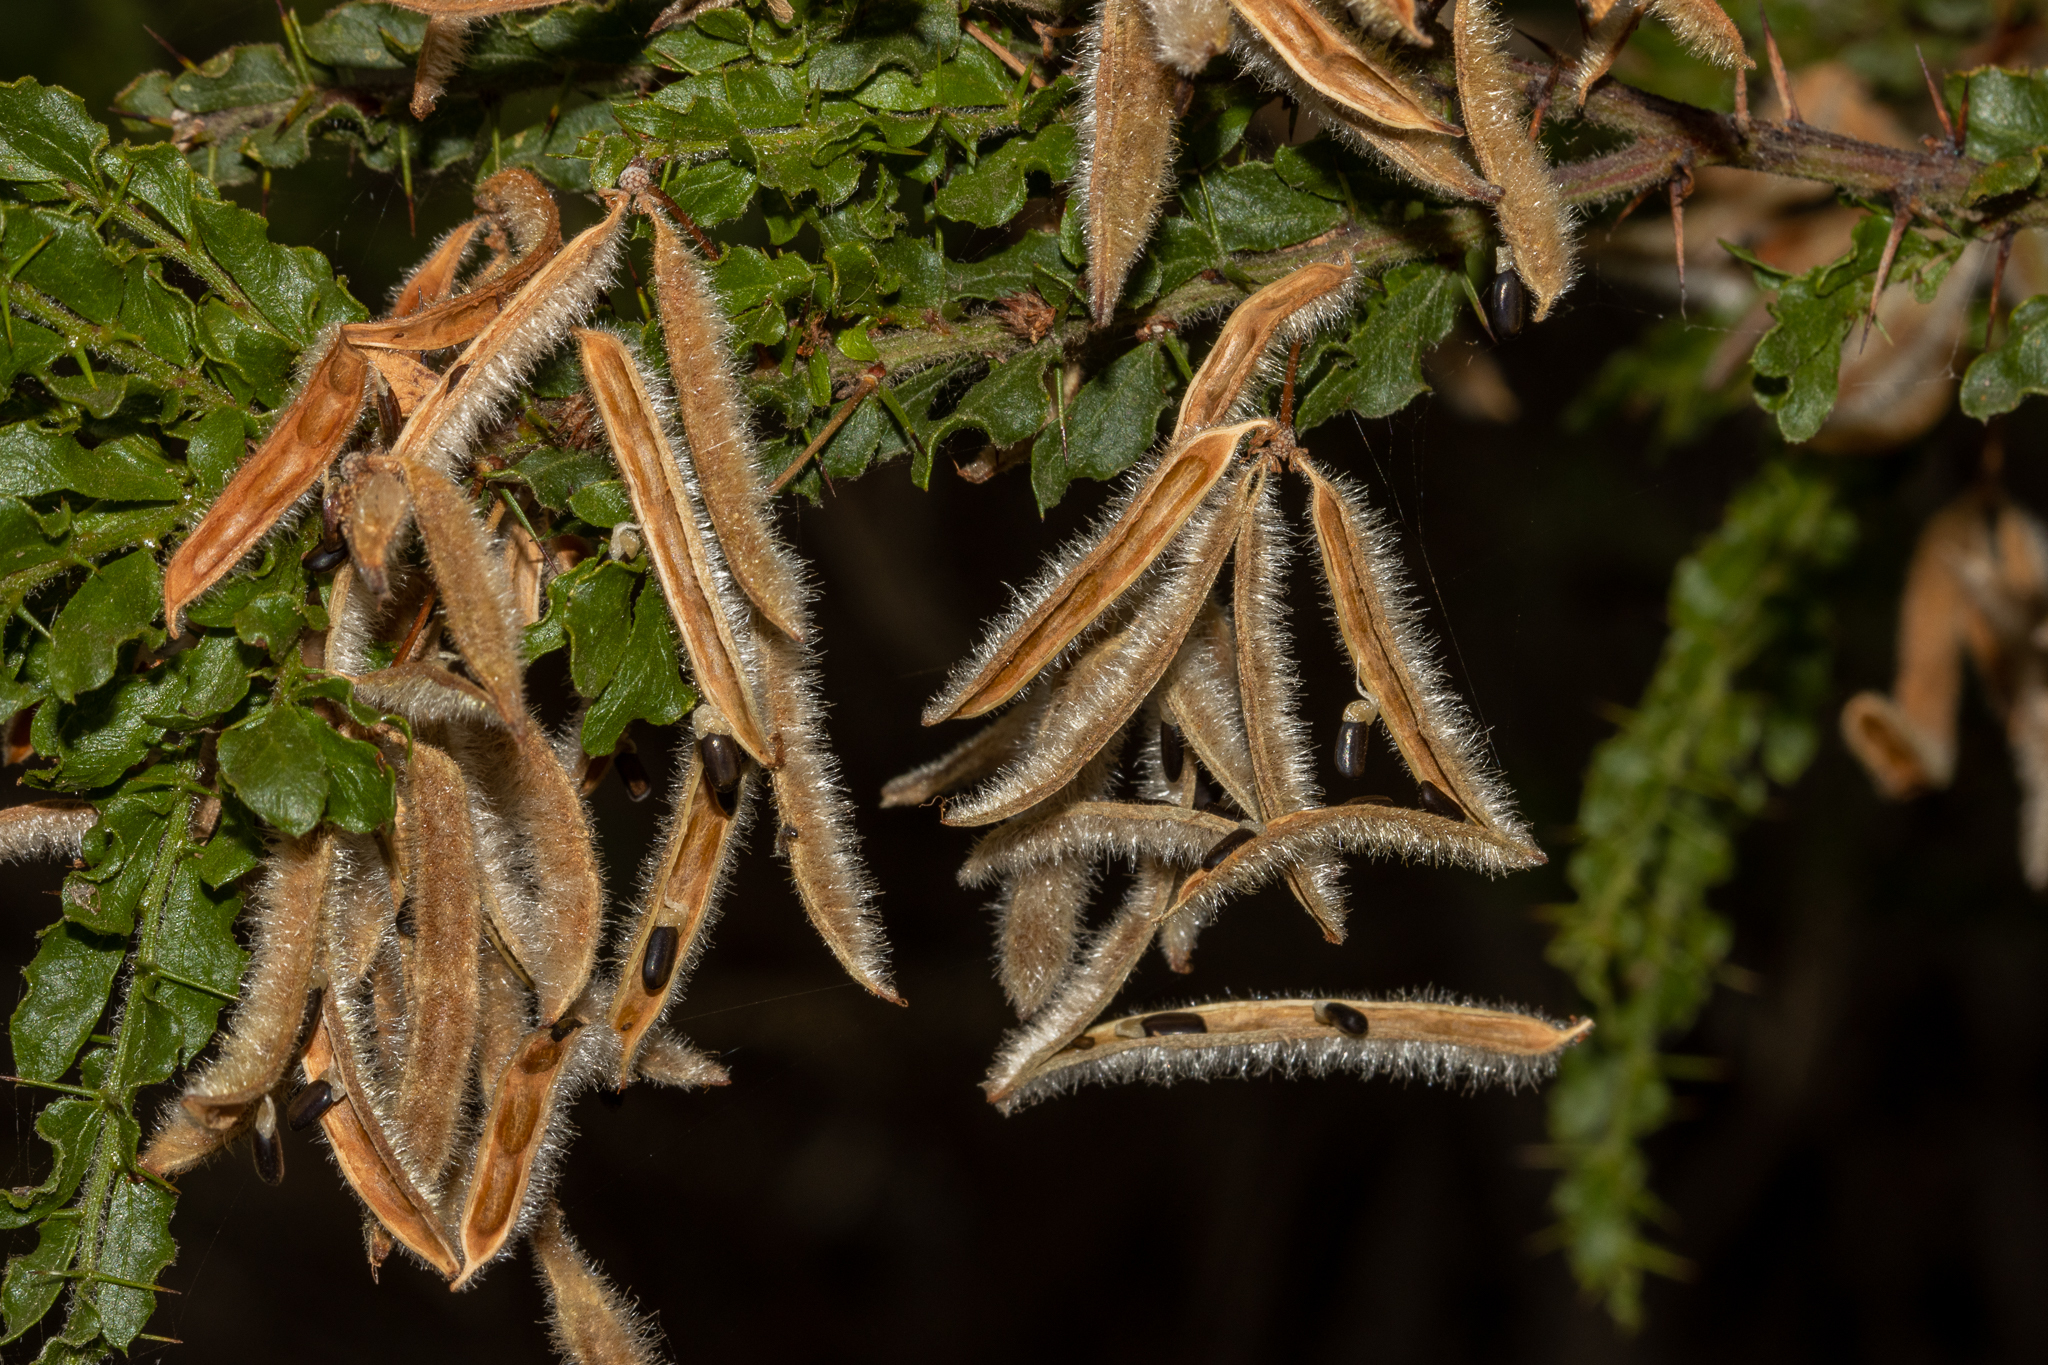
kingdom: Plantae
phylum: Tracheophyta
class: Magnoliopsida
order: Fabales
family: Fabaceae
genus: Acacia
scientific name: Acacia paradoxa
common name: Paradox acacia
